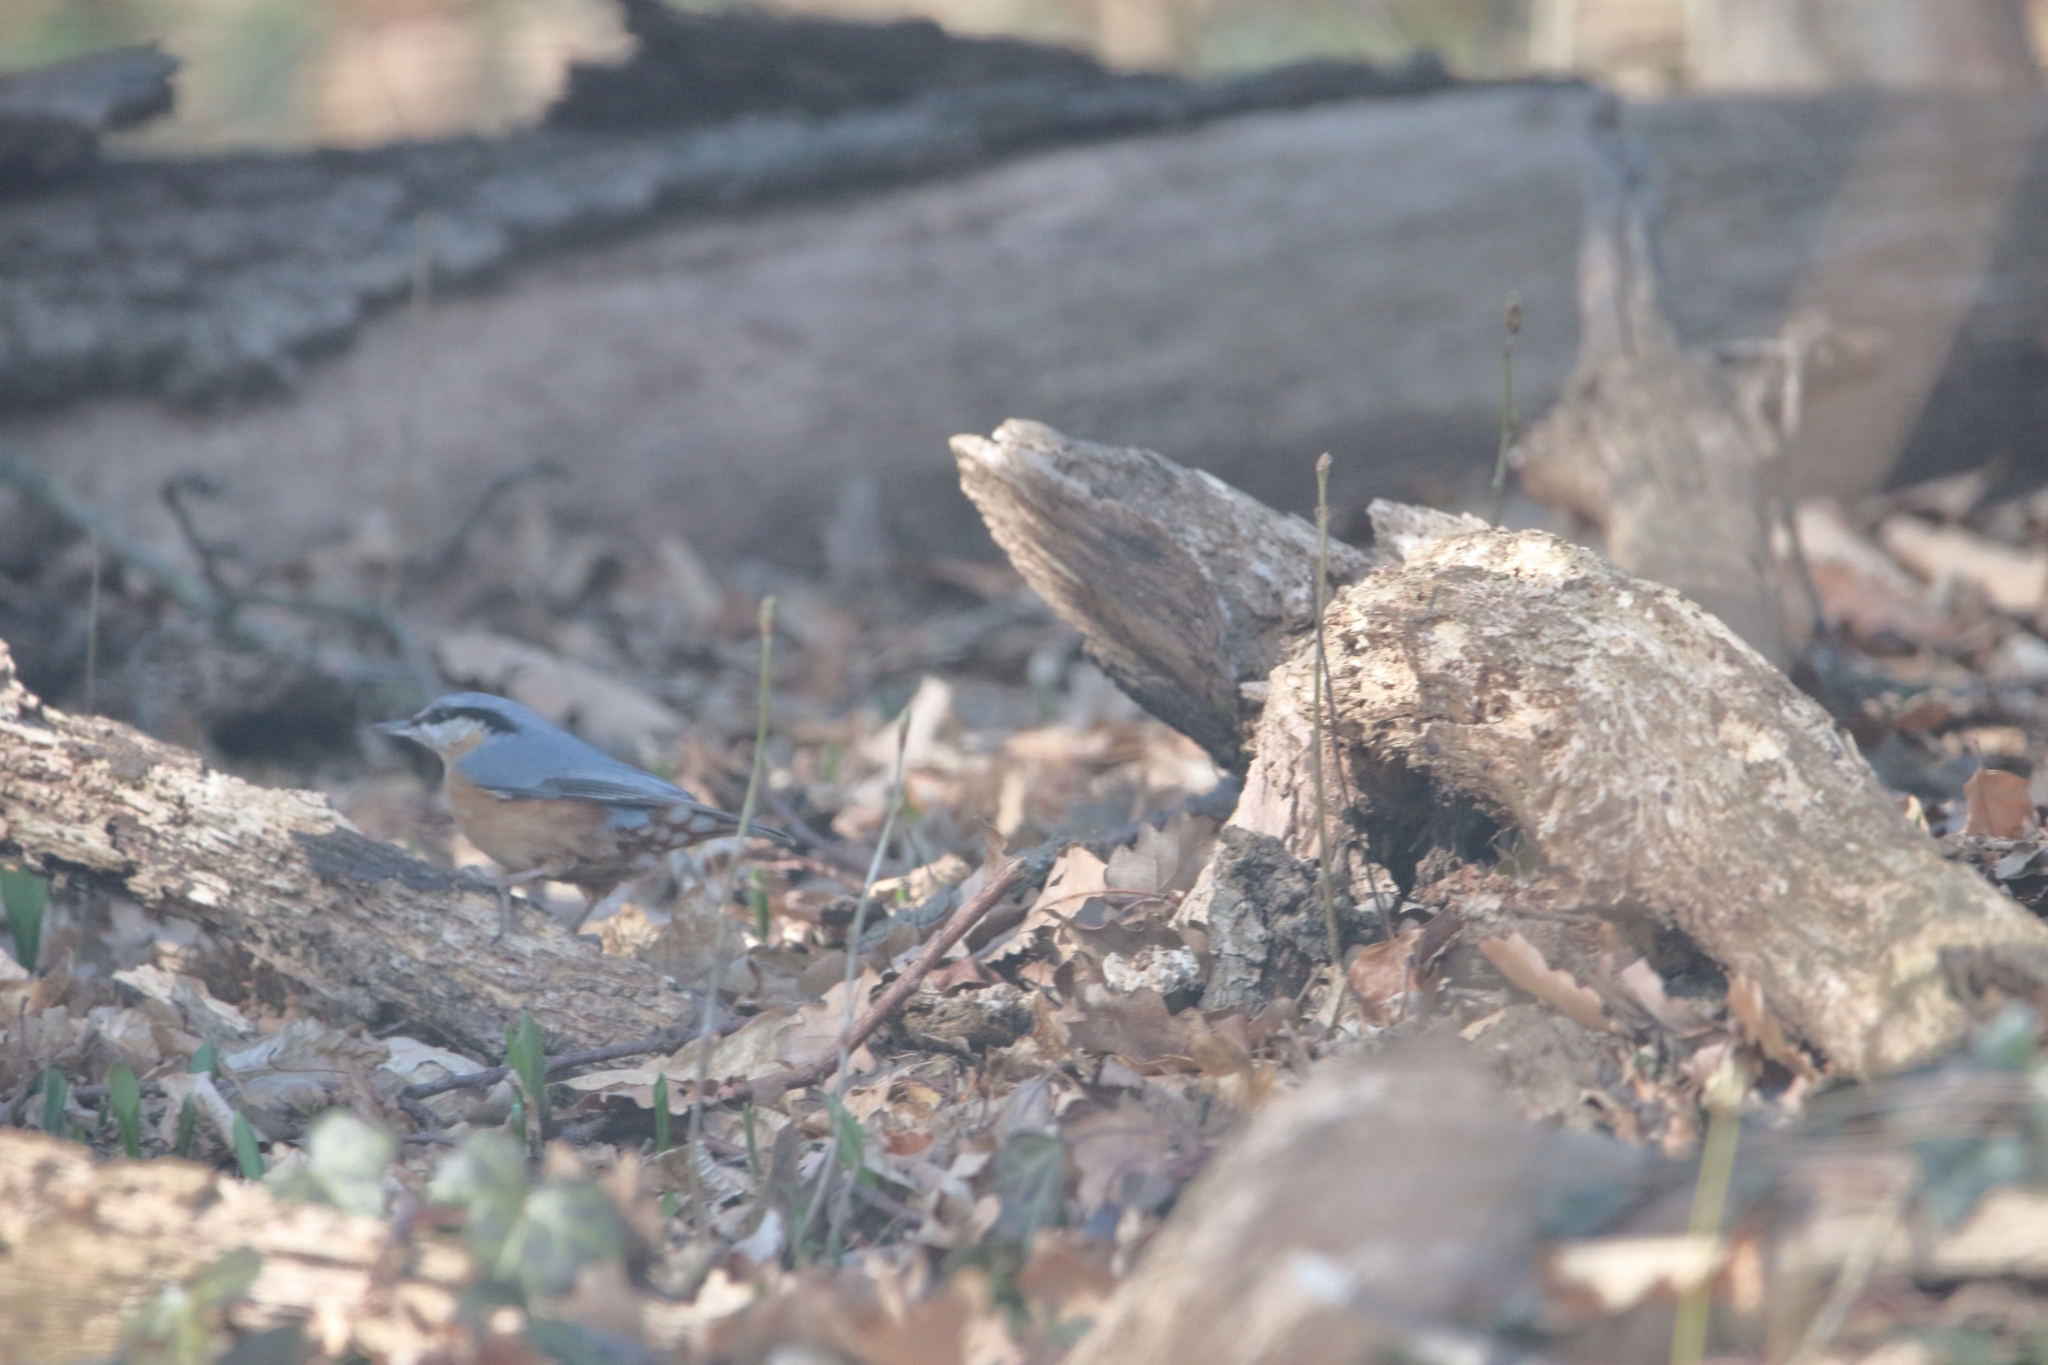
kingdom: Animalia
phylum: Chordata
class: Aves
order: Passeriformes
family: Sittidae
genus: Sitta
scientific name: Sitta europaea
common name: Eurasian nuthatch
